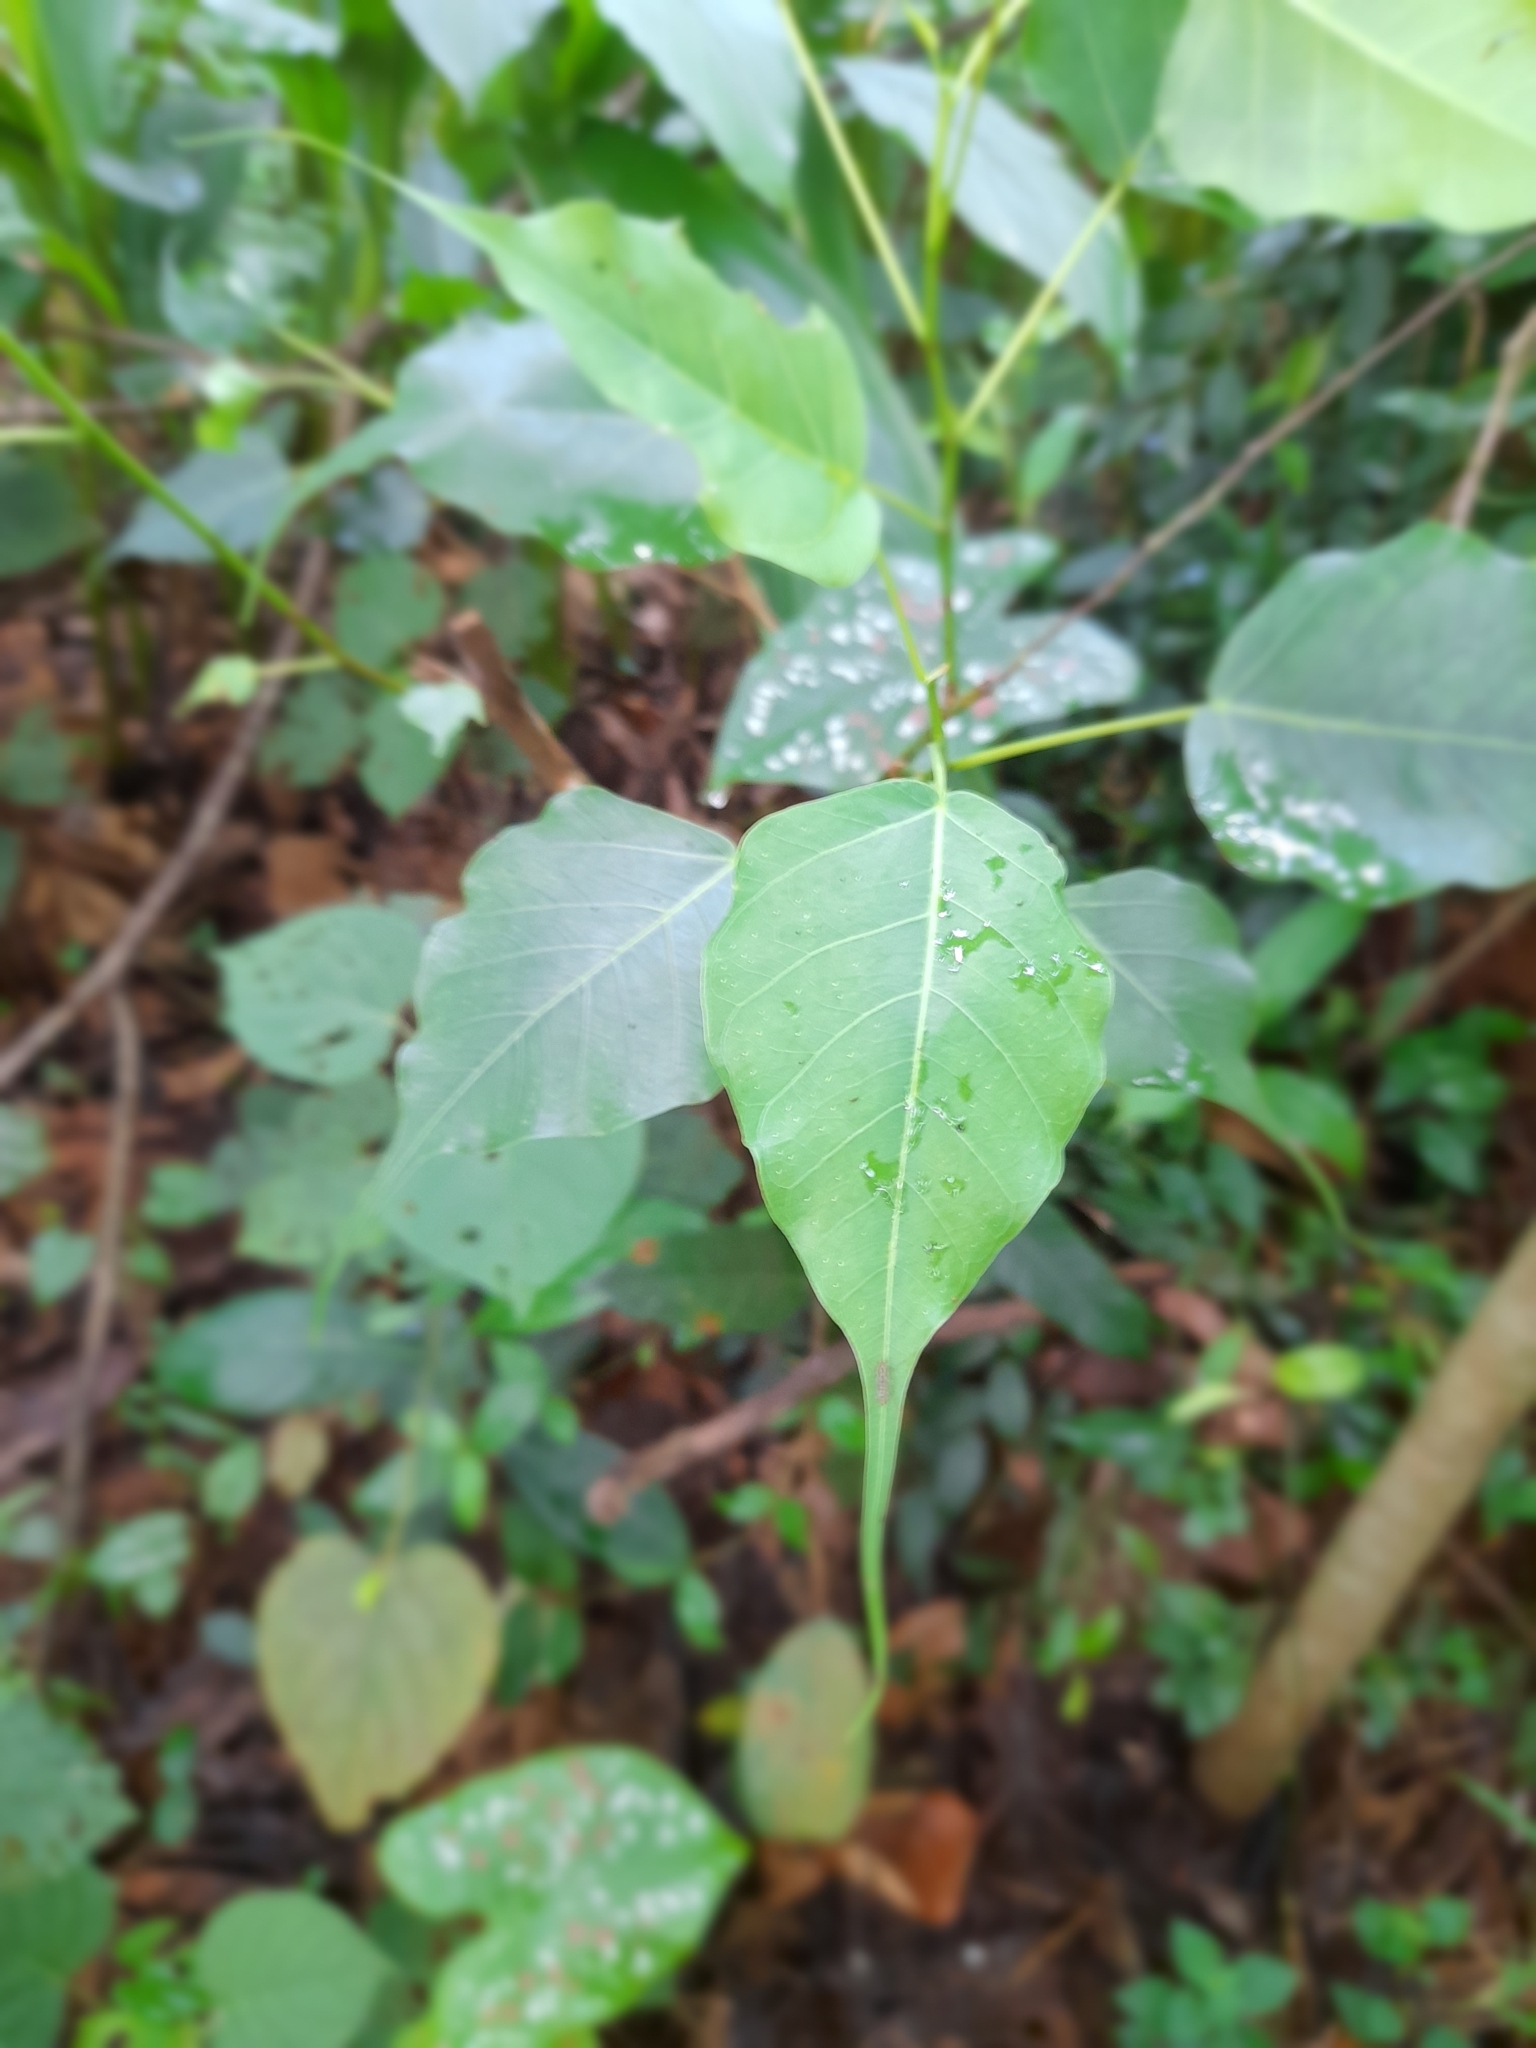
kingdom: Plantae
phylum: Tracheophyta
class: Magnoliopsida
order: Rosales
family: Moraceae
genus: Ficus
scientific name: Ficus religiosa
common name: Bodhi tree
